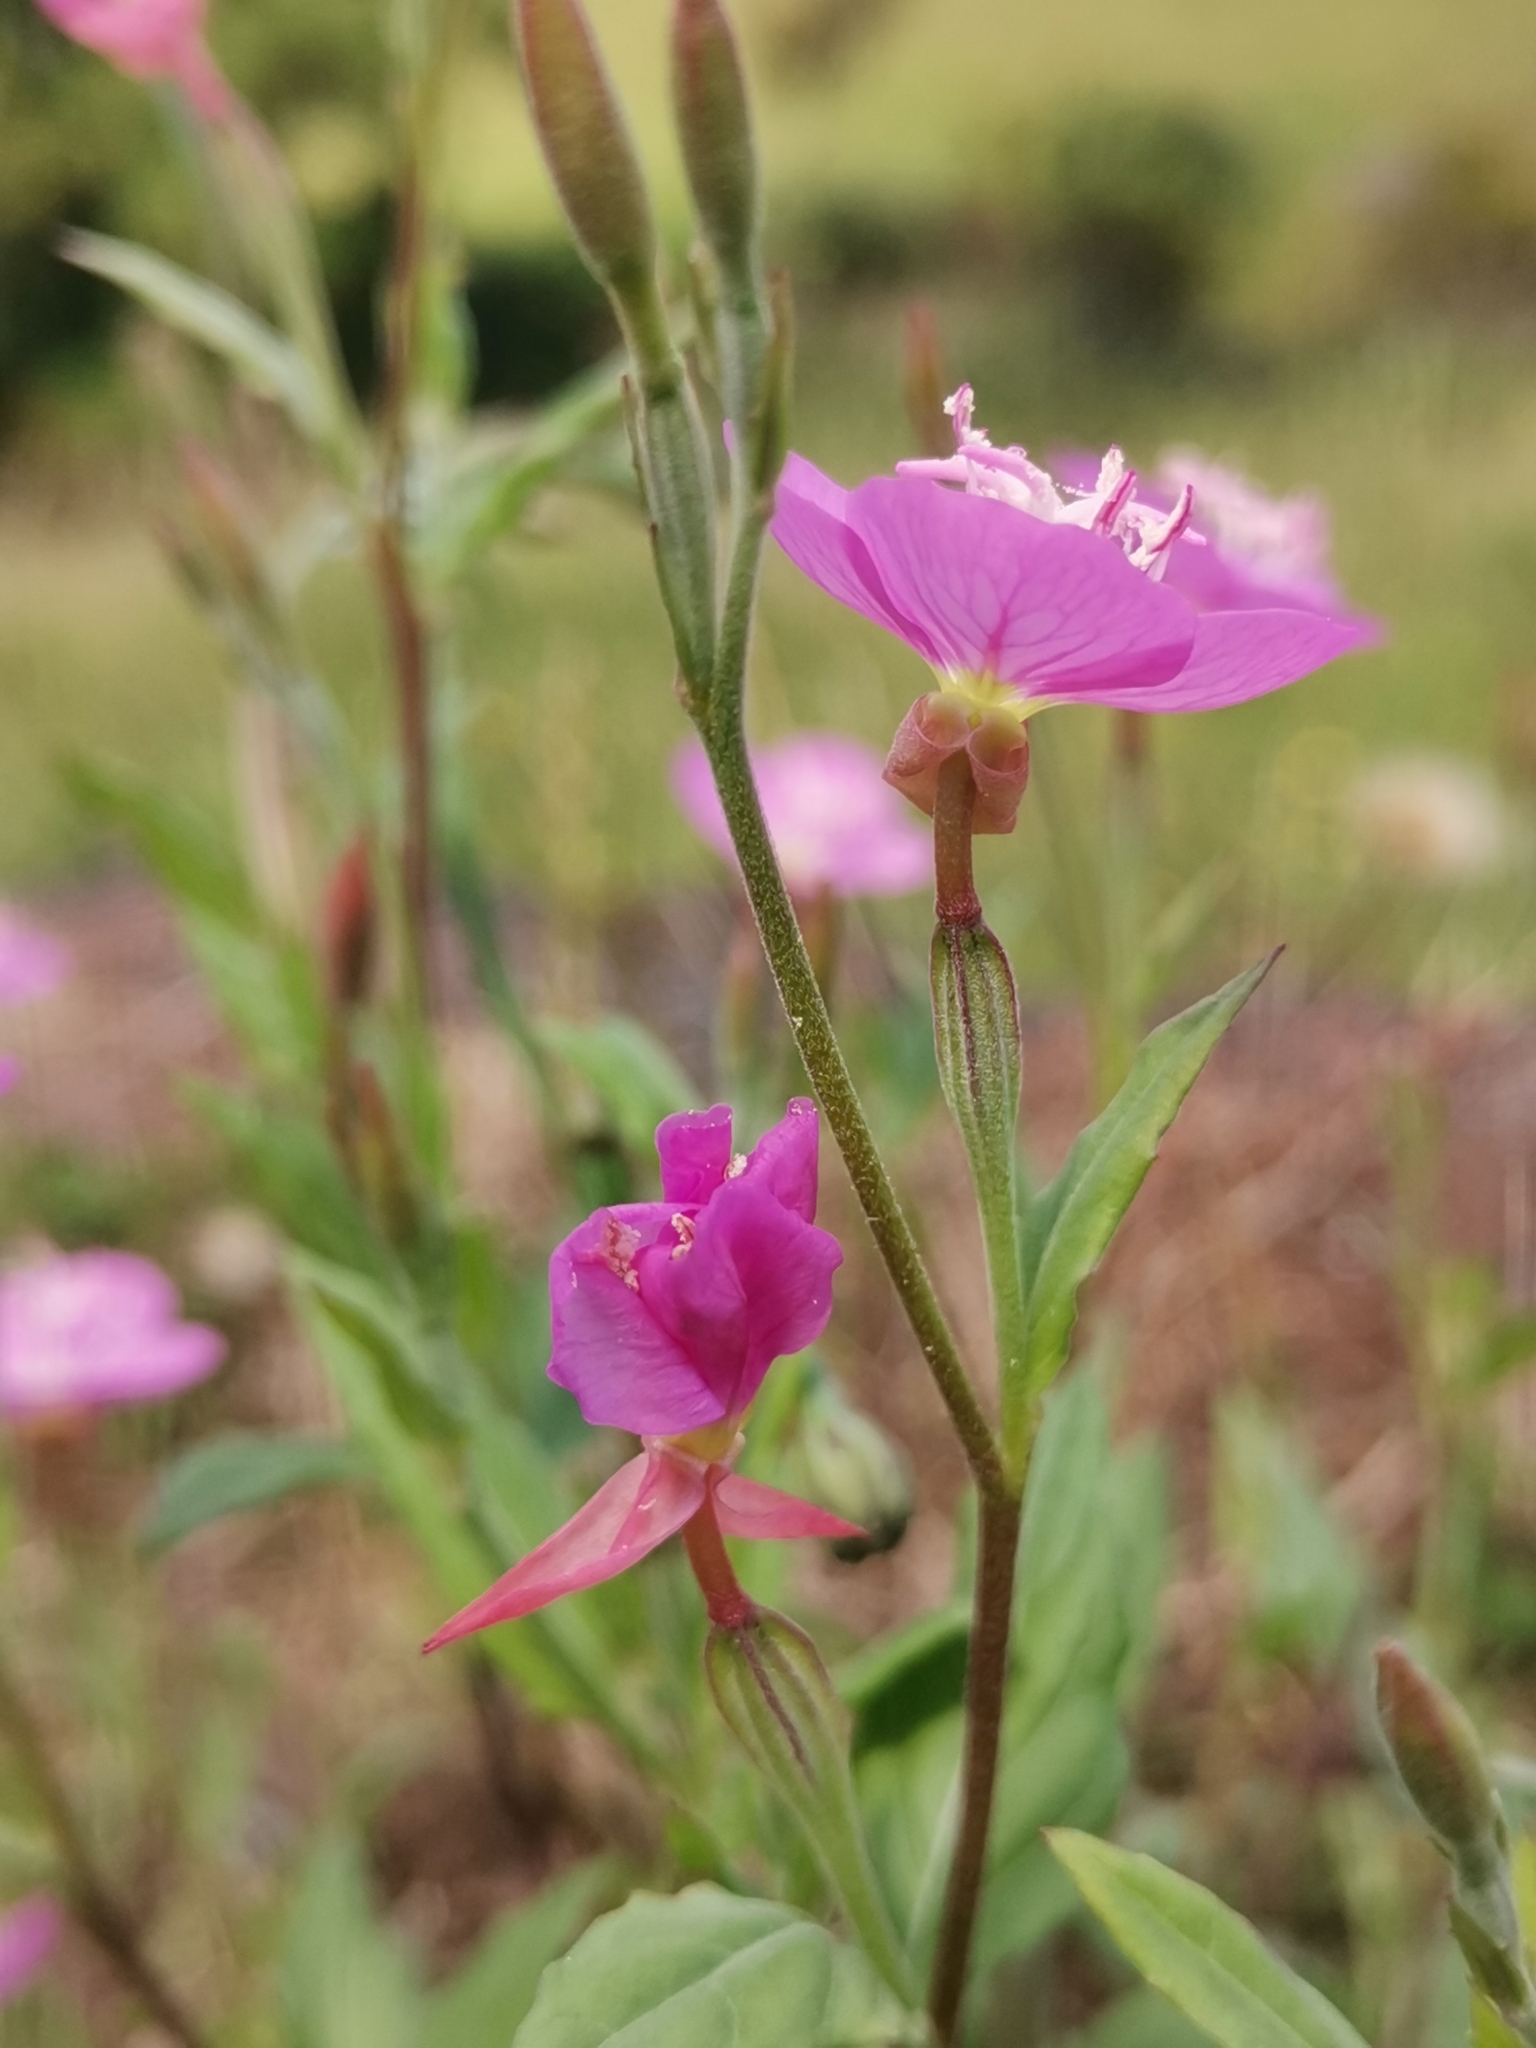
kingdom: Plantae
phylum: Tracheophyta
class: Magnoliopsida
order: Myrtales
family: Onagraceae
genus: Oenothera
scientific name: Oenothera rosea
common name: Rosy evening-primrose
